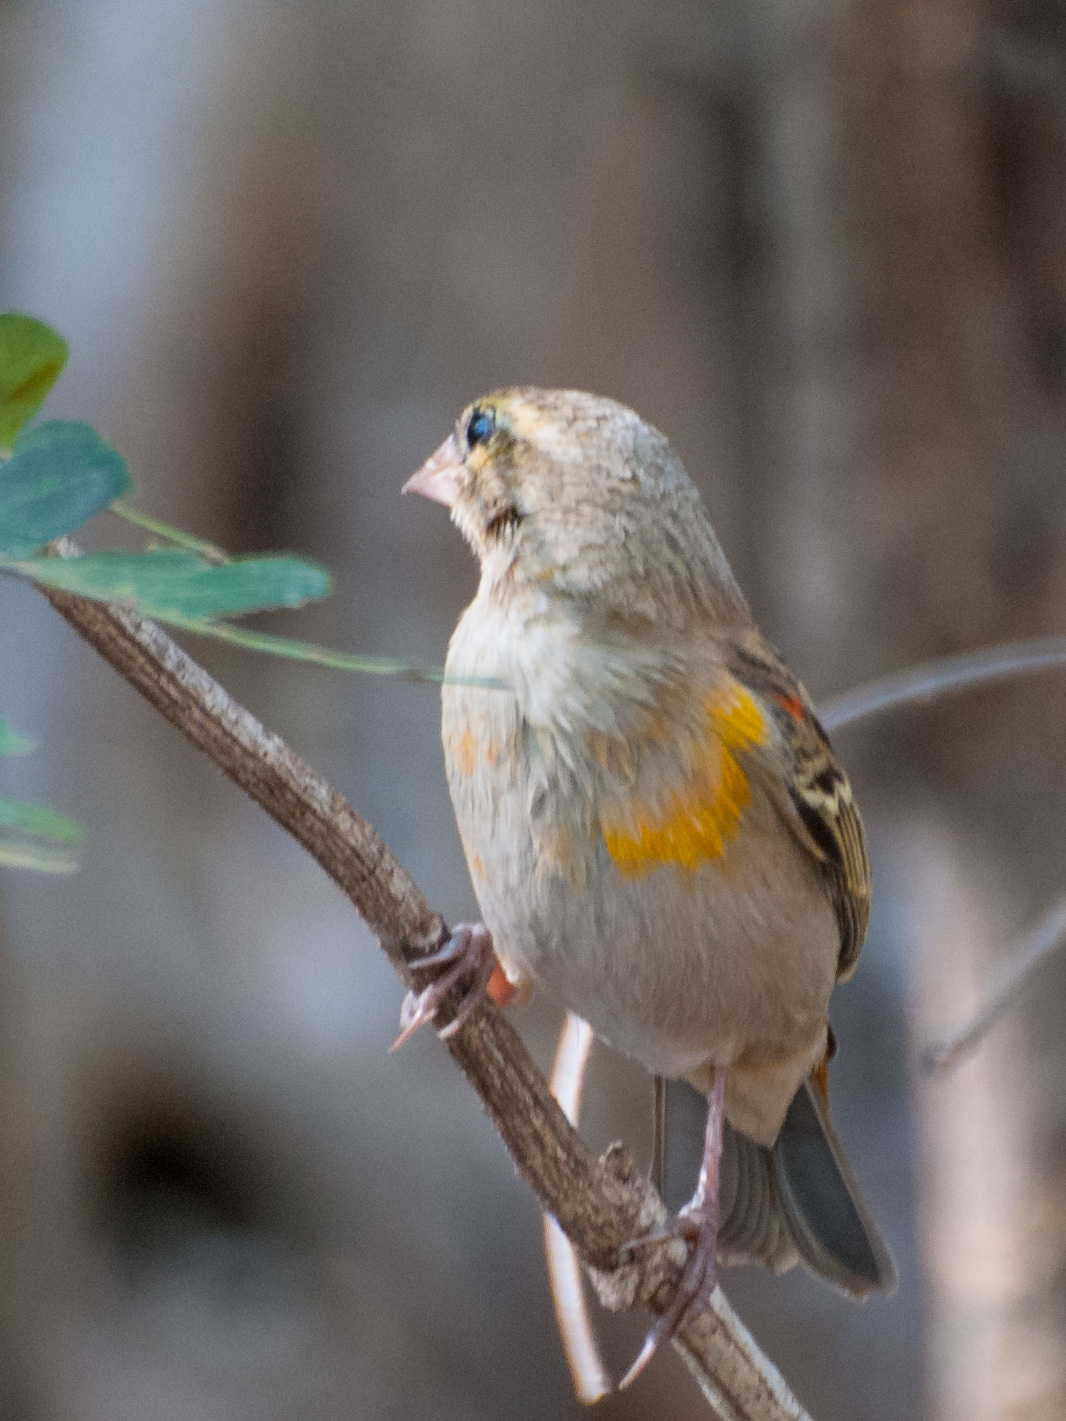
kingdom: Animalia
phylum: Chordata
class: Aves
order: Passeriformes
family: Ploceidae
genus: Foudia
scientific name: Foudia madagascariensis
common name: Red fody
